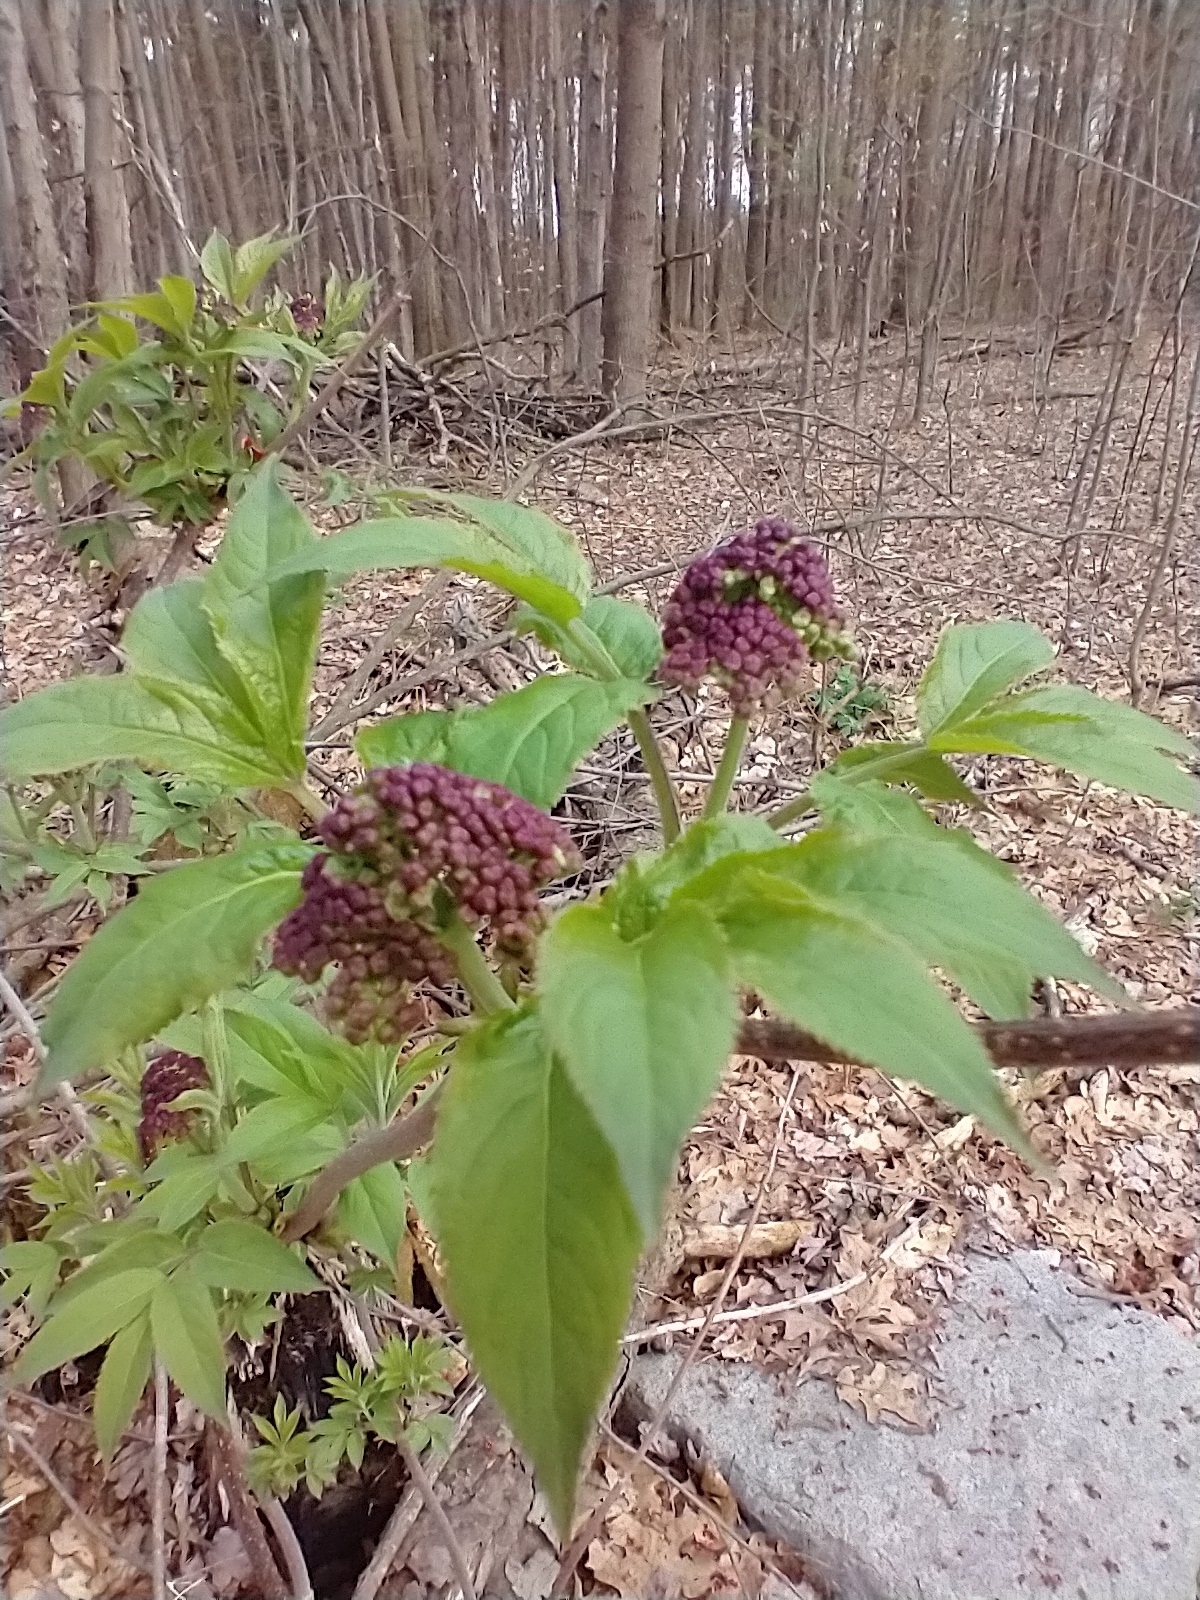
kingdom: Plantae
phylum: Tracheophyta
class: Magnoliopsida
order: Dipsacales
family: Viburnaceae
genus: Sambucus
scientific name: Sambucus racemosa
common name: Red-berried elder
